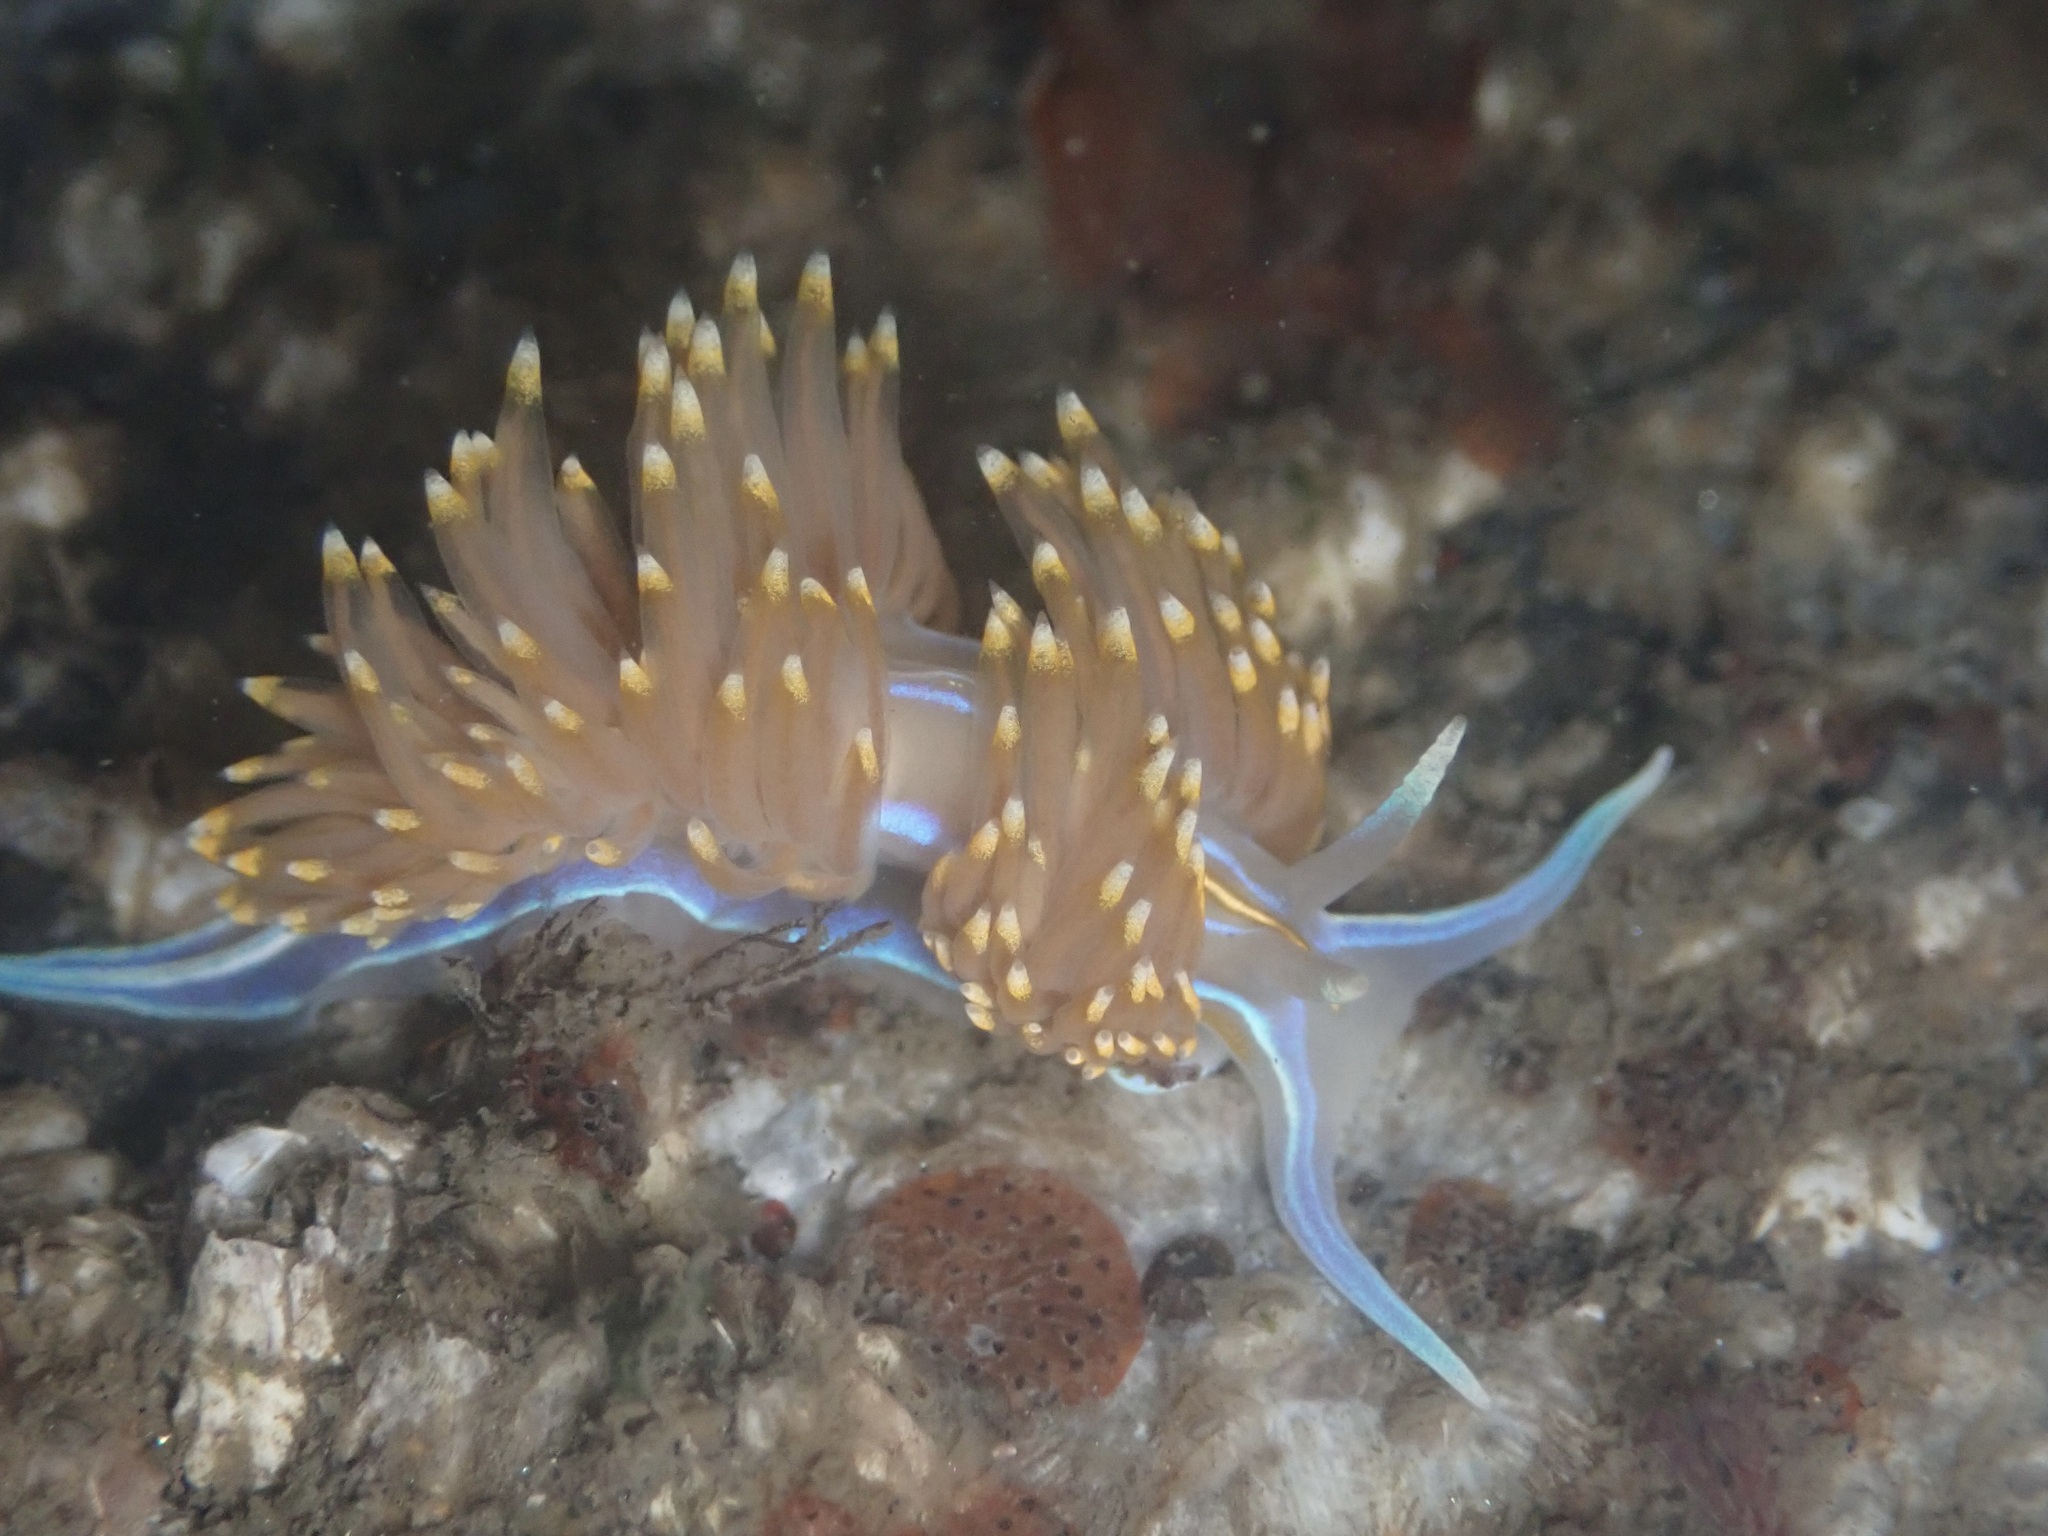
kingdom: Animalia
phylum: Mollusca
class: Gastropoda
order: Nudibranchia
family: Myrrhinidae
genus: Hermissenda
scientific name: Hermissenda opalescens
